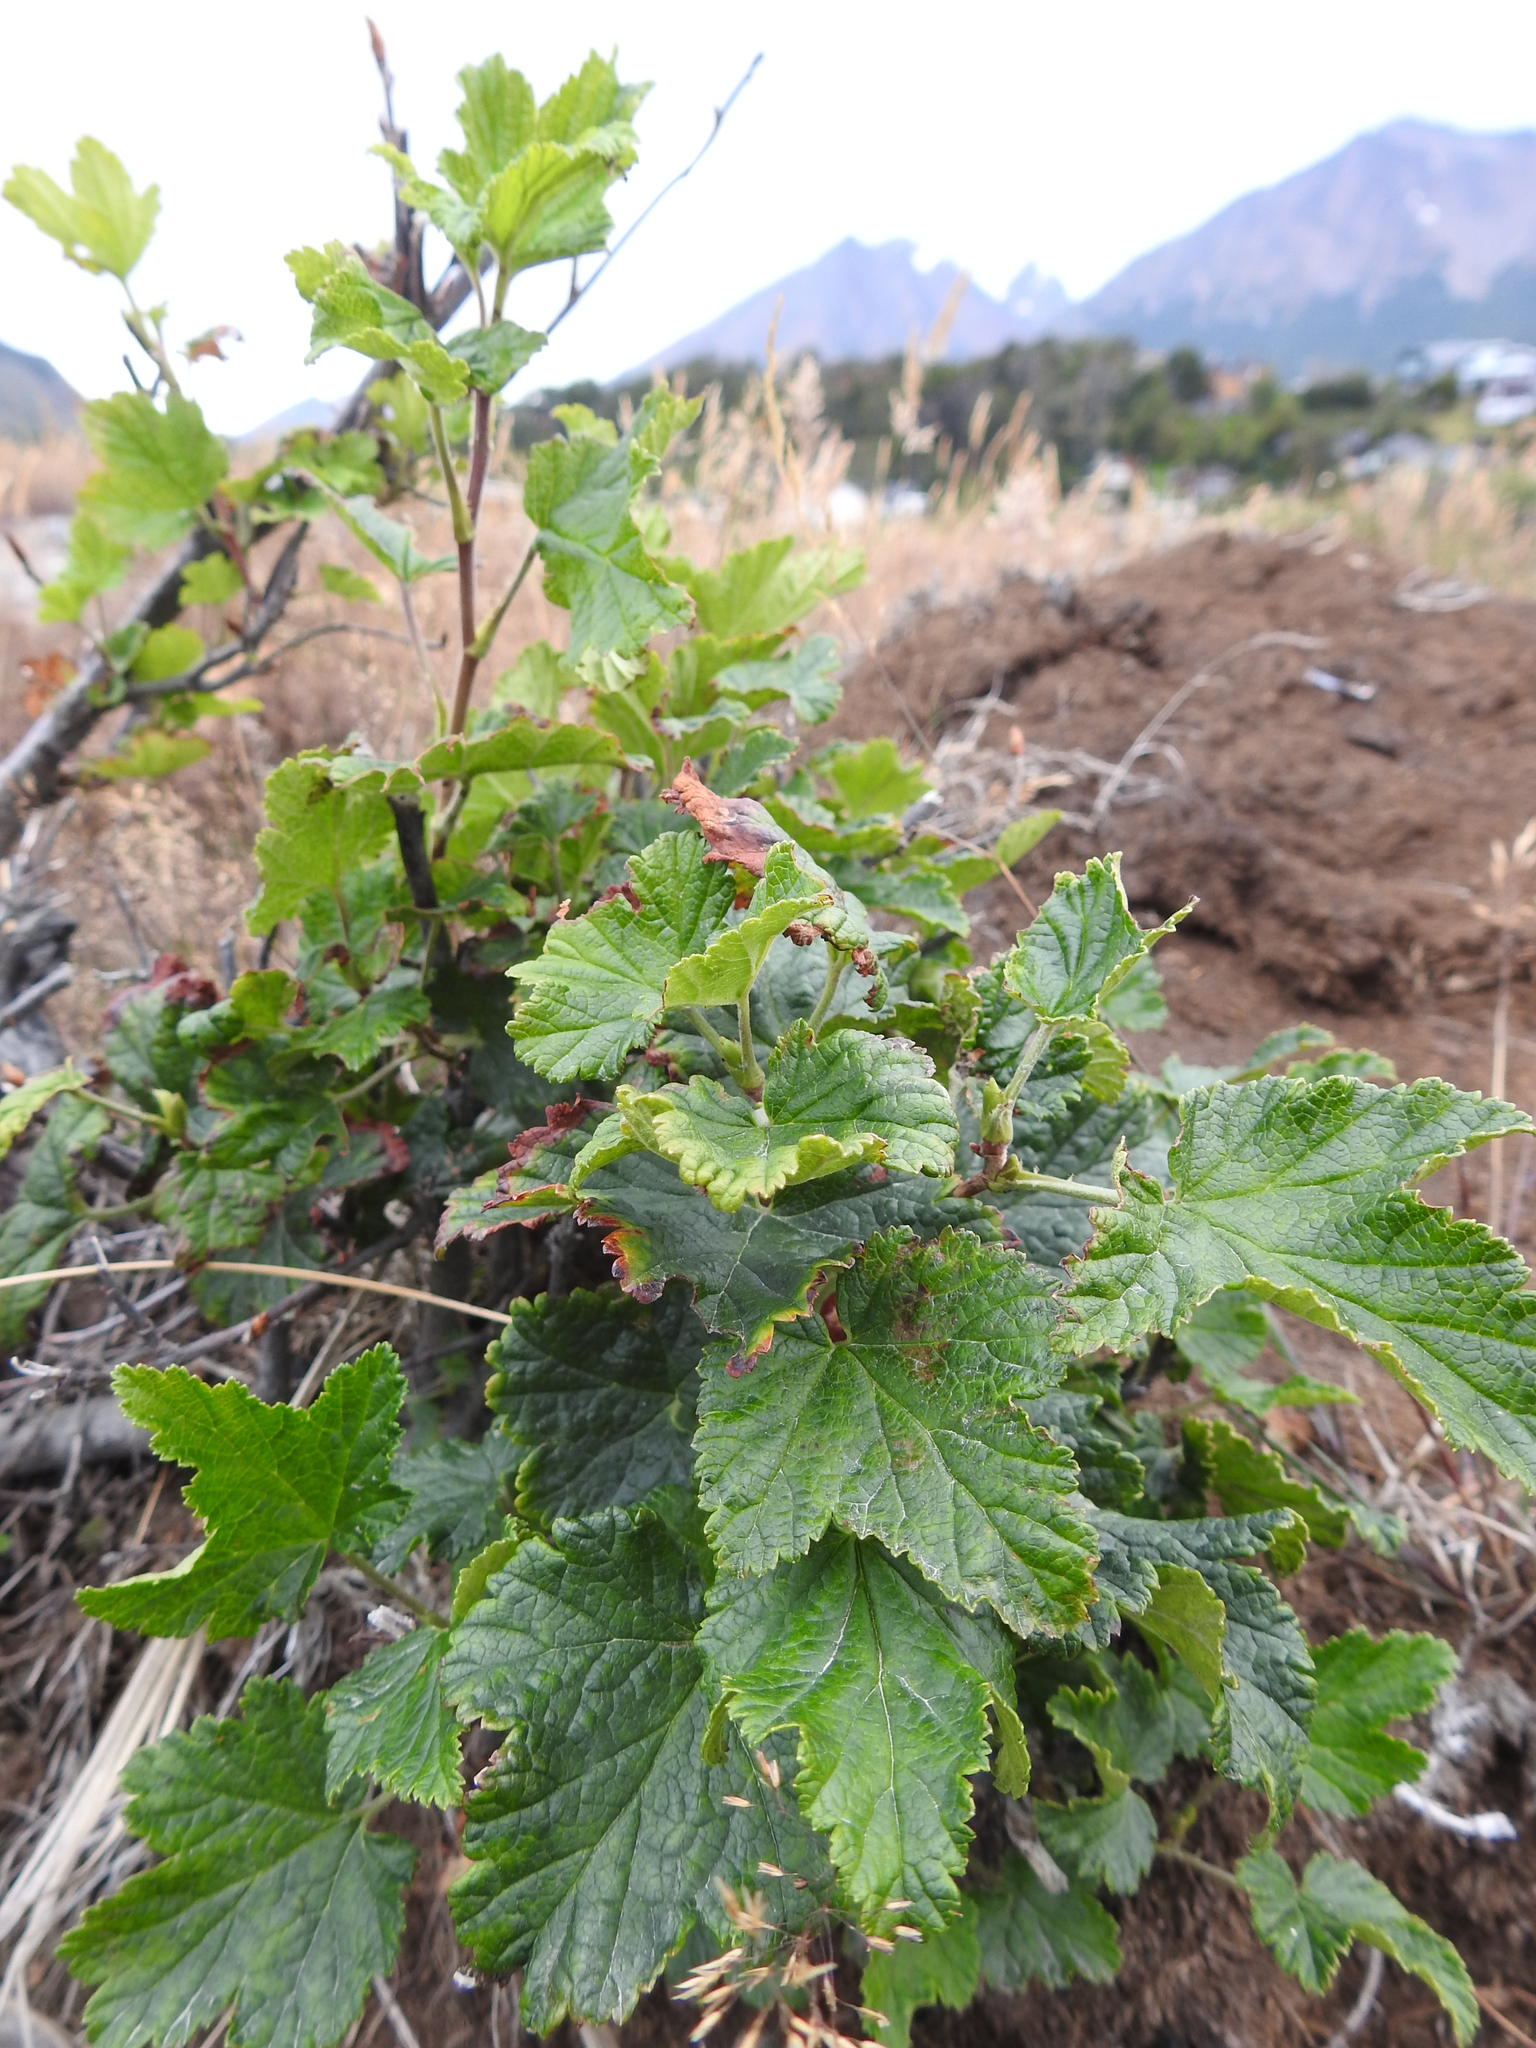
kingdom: Plantae
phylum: Tracheophyta
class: Magnoliopsida
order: Saxifragales
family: Grossulariaceae
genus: Ribes
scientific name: Ribes magellanicum
